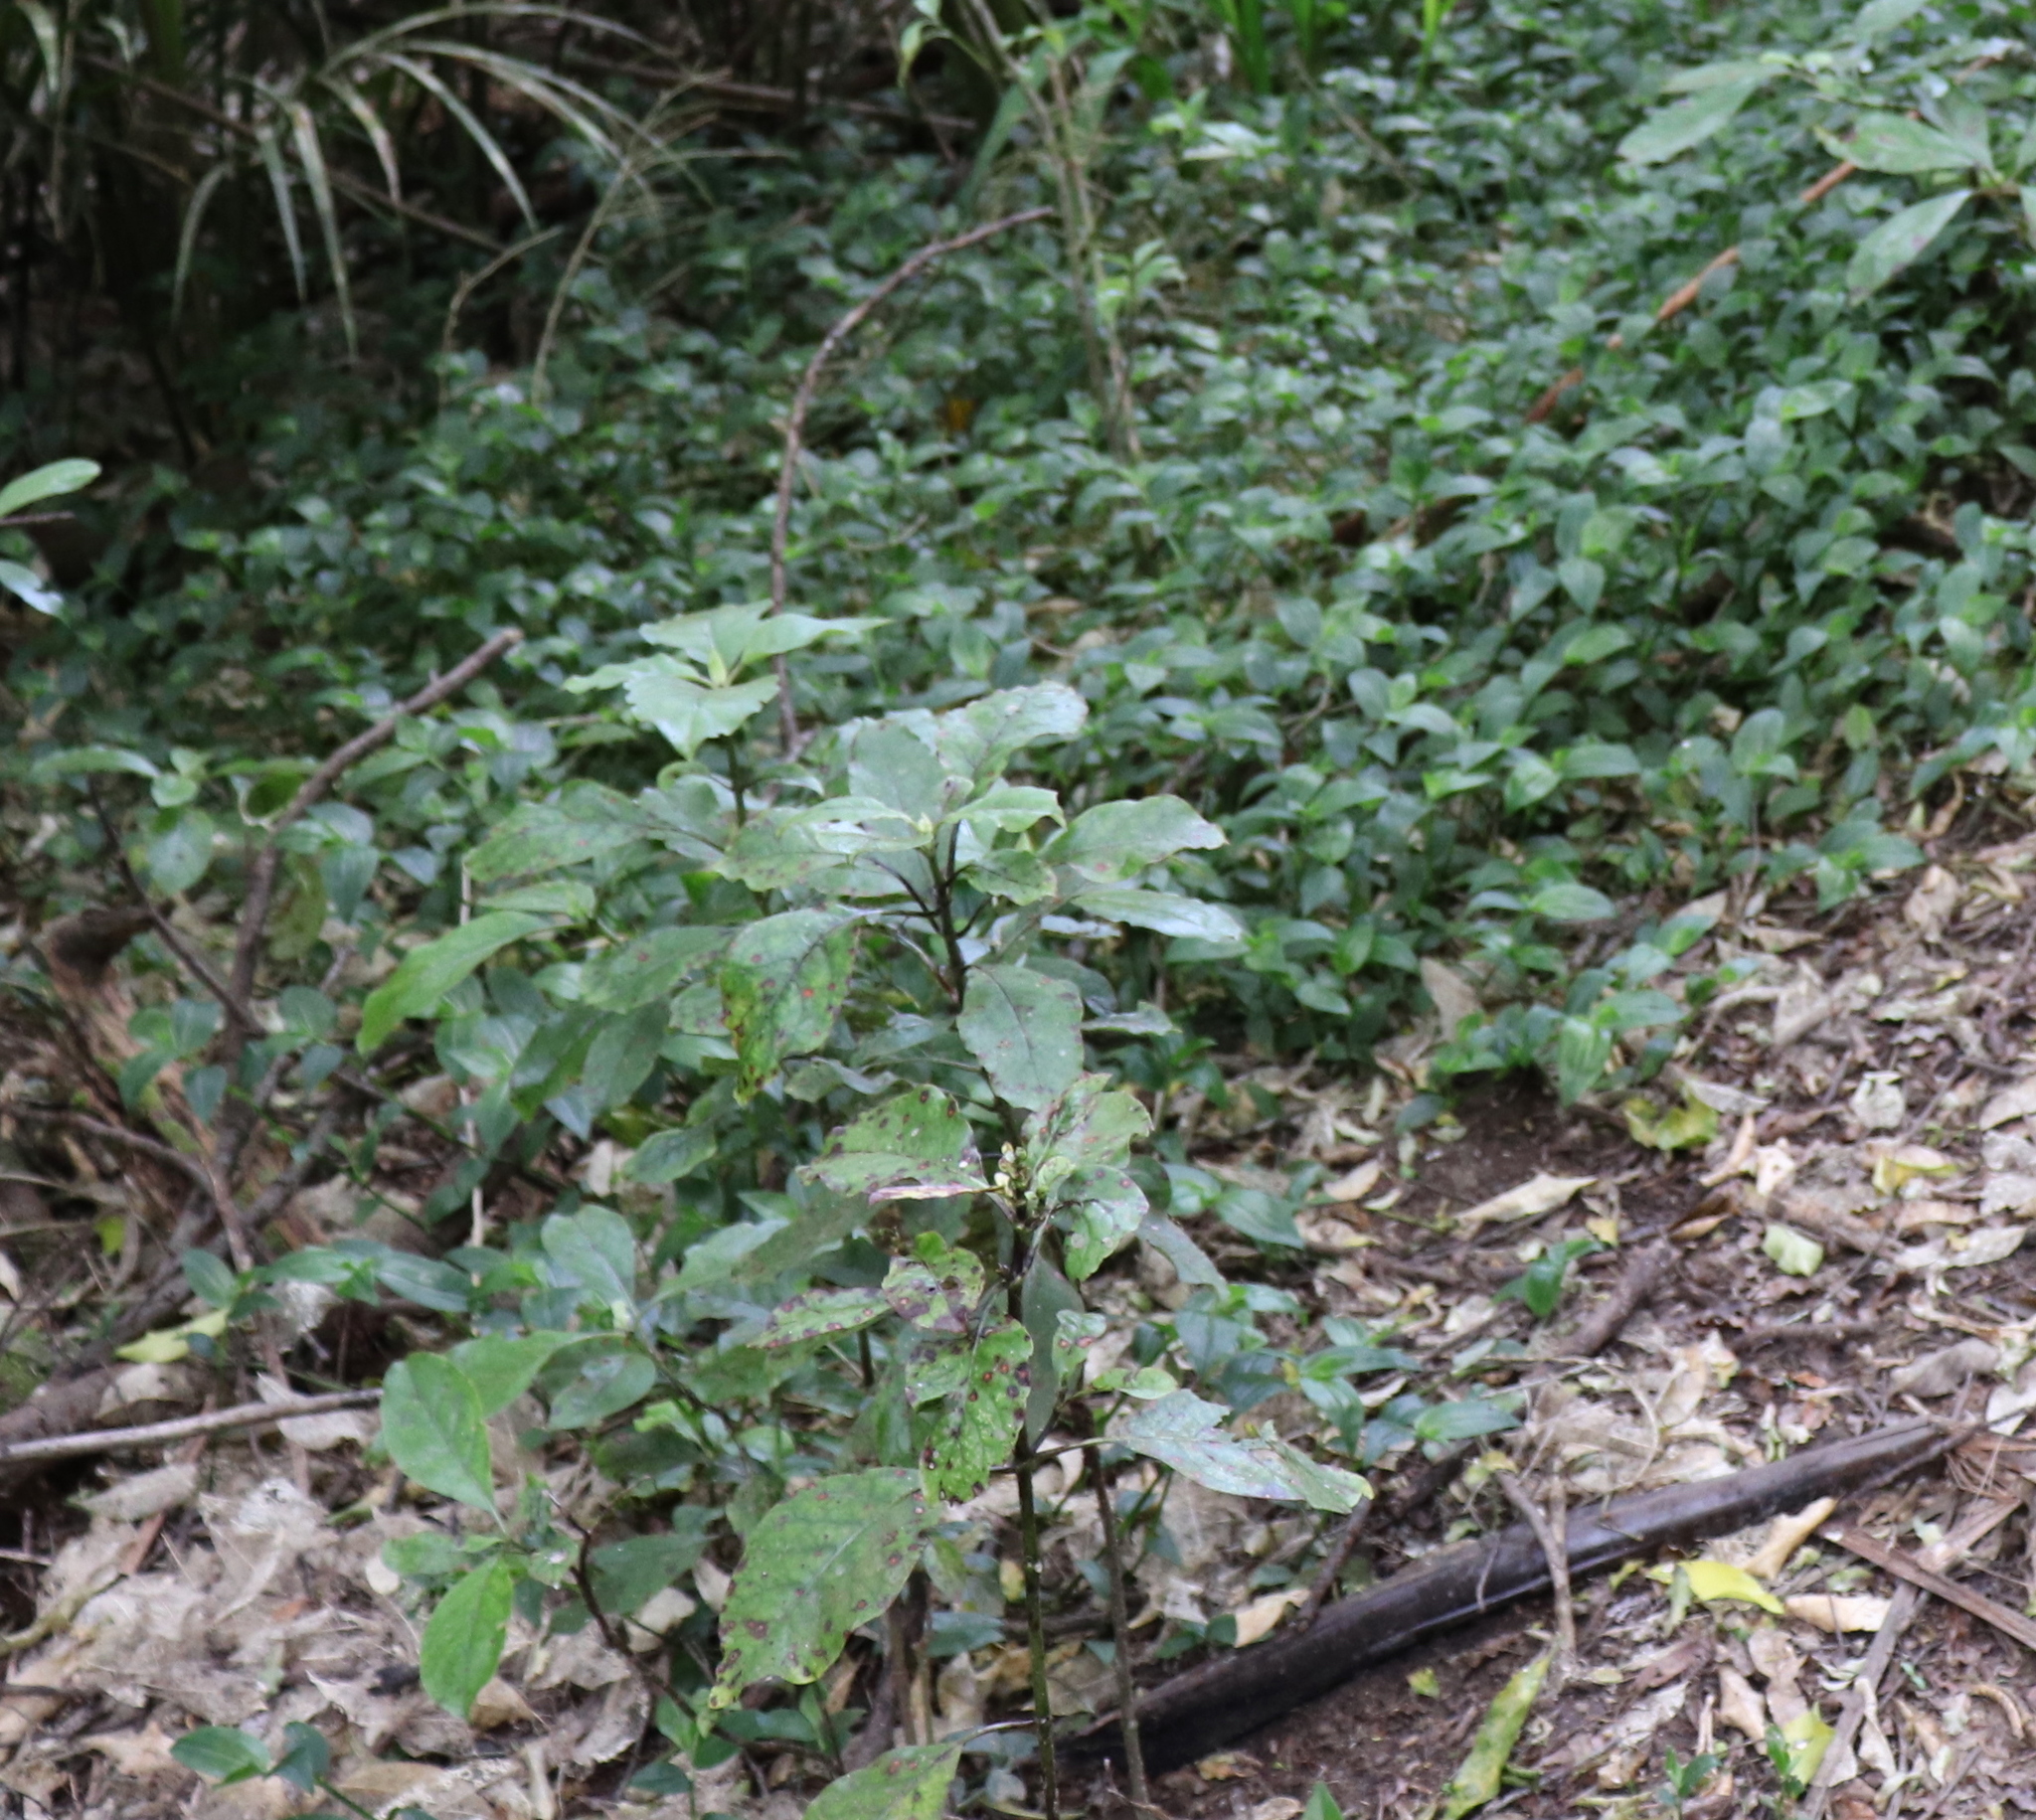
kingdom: Plantae
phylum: Tracheophyta
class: Magnoliopsida
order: Gentianales
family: Rubiaceae
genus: Coprosma
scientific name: Coprosma autumnalis
